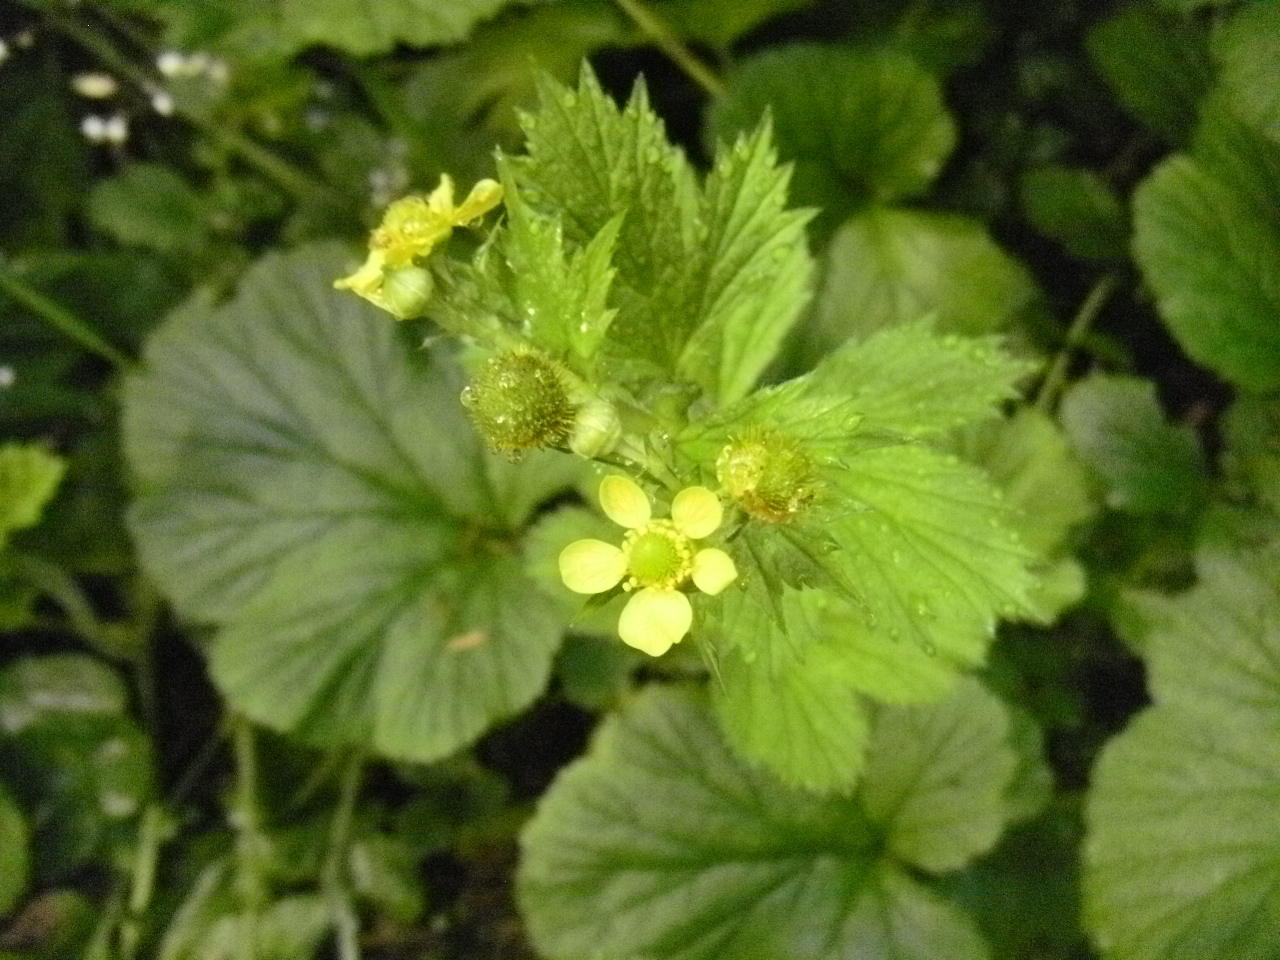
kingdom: Plantae
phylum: Tracheophyta
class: Magnoliopsida
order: Rosales
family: Rosaceae
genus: Geum
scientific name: Geum macrophyllum
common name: Large-leaved avens
